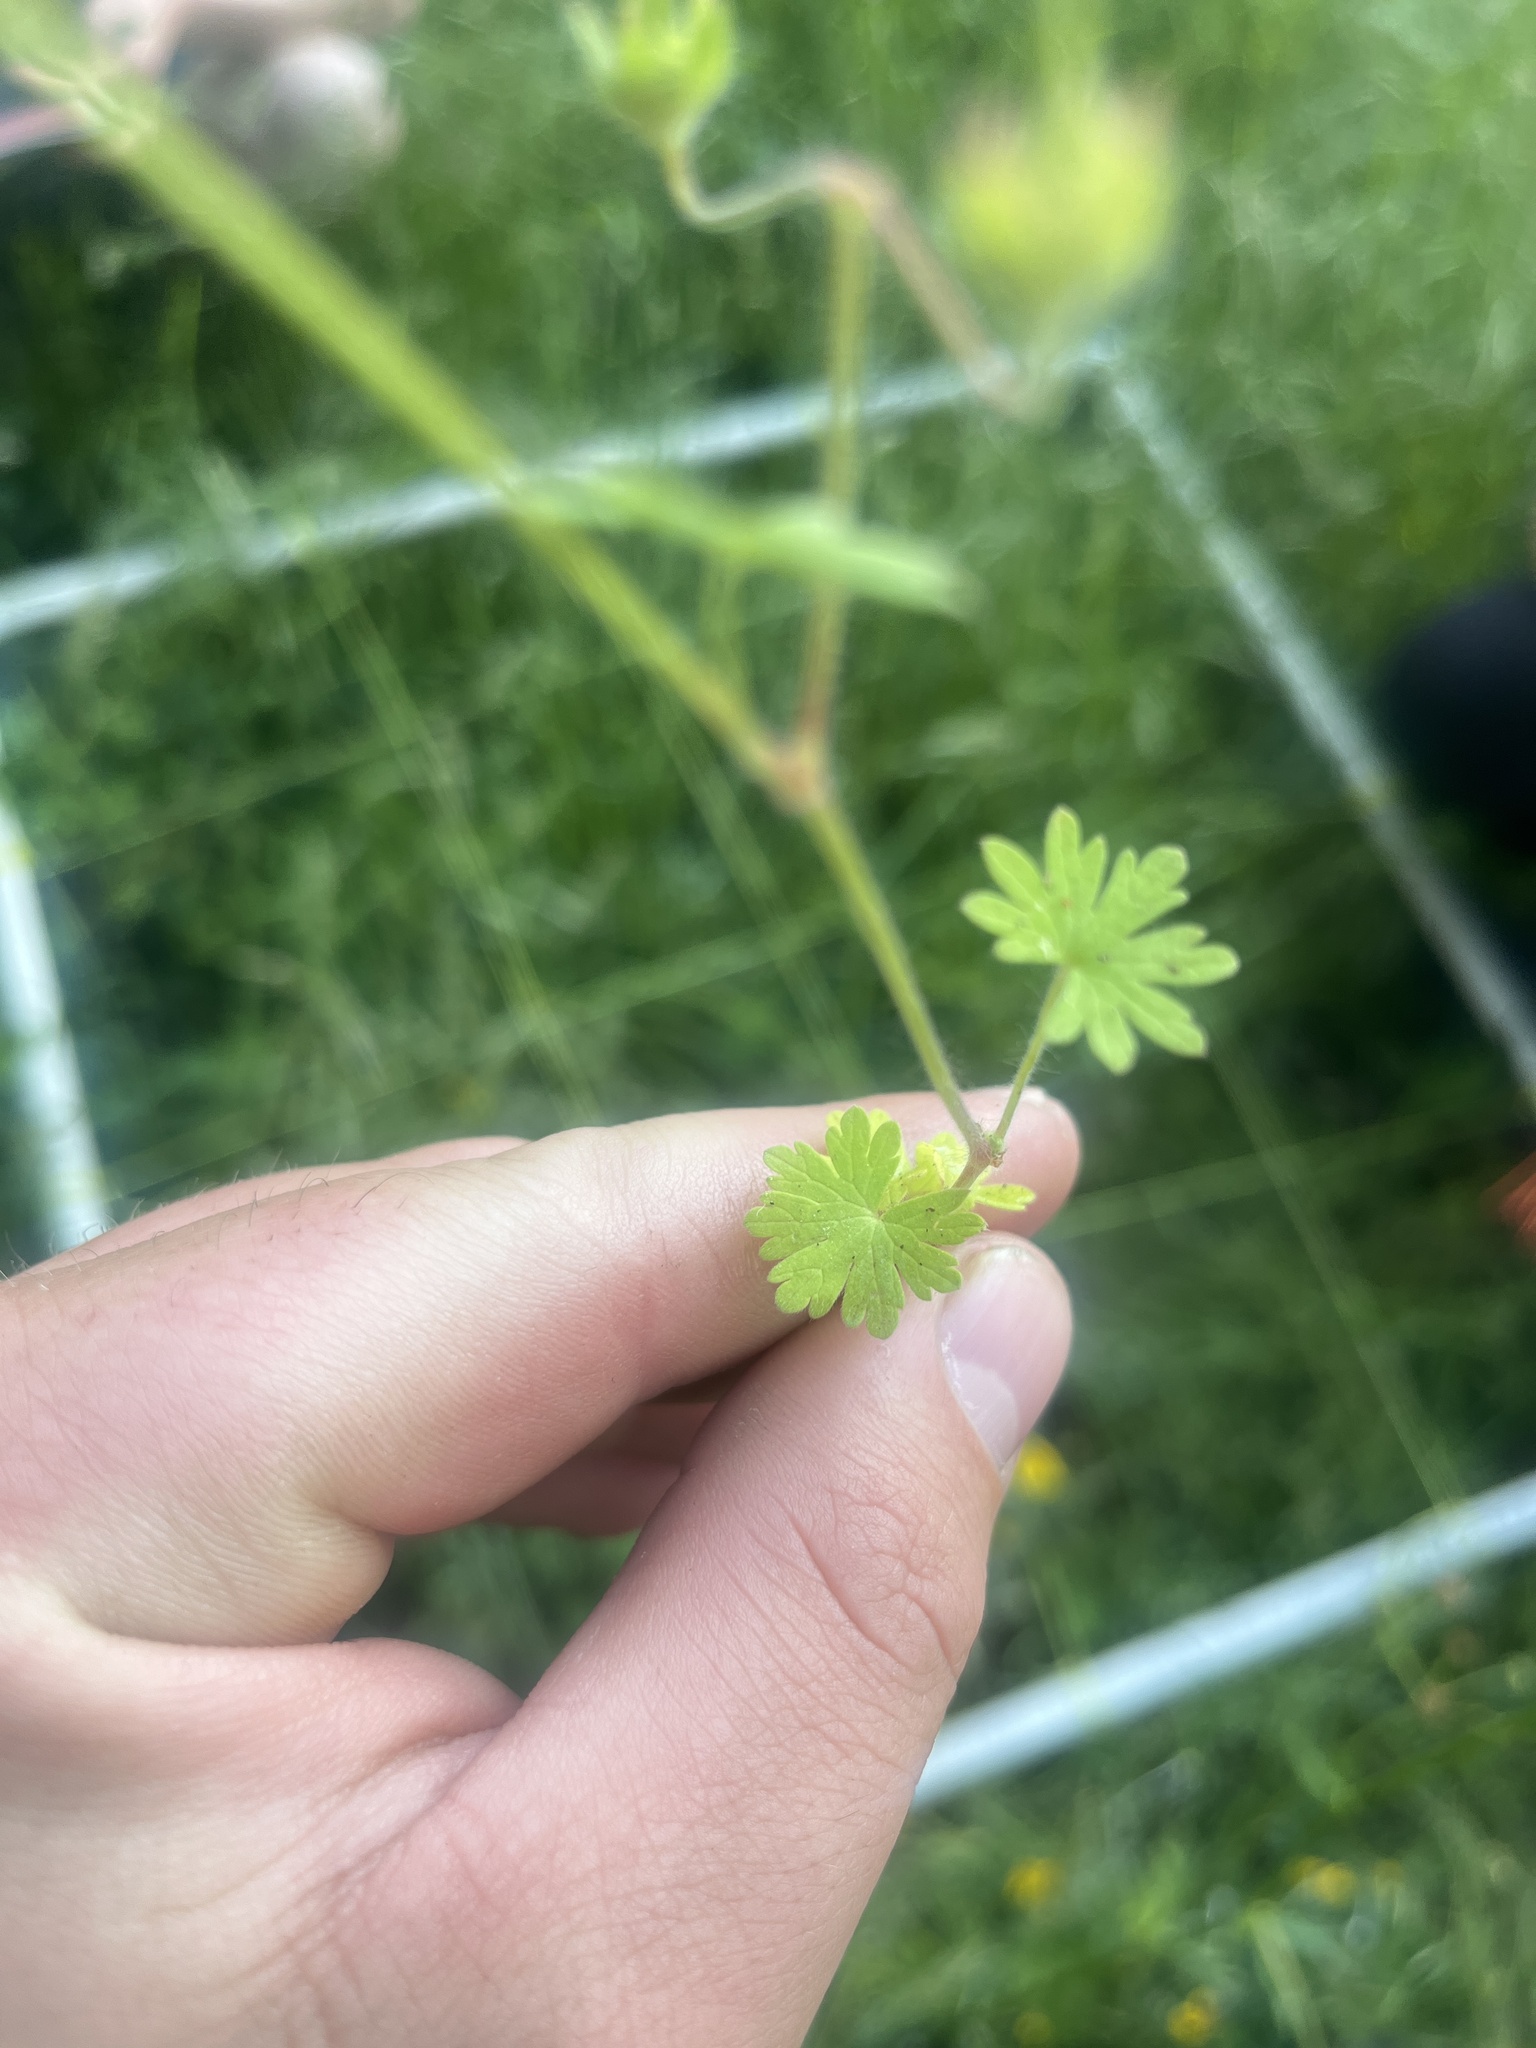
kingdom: Plantae
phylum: Tracheophyta
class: Magnoliopsida
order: Geraniales
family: Geraniaceae
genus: Geranium
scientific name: Geranium molle
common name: Dove's-foot crane's-bill
